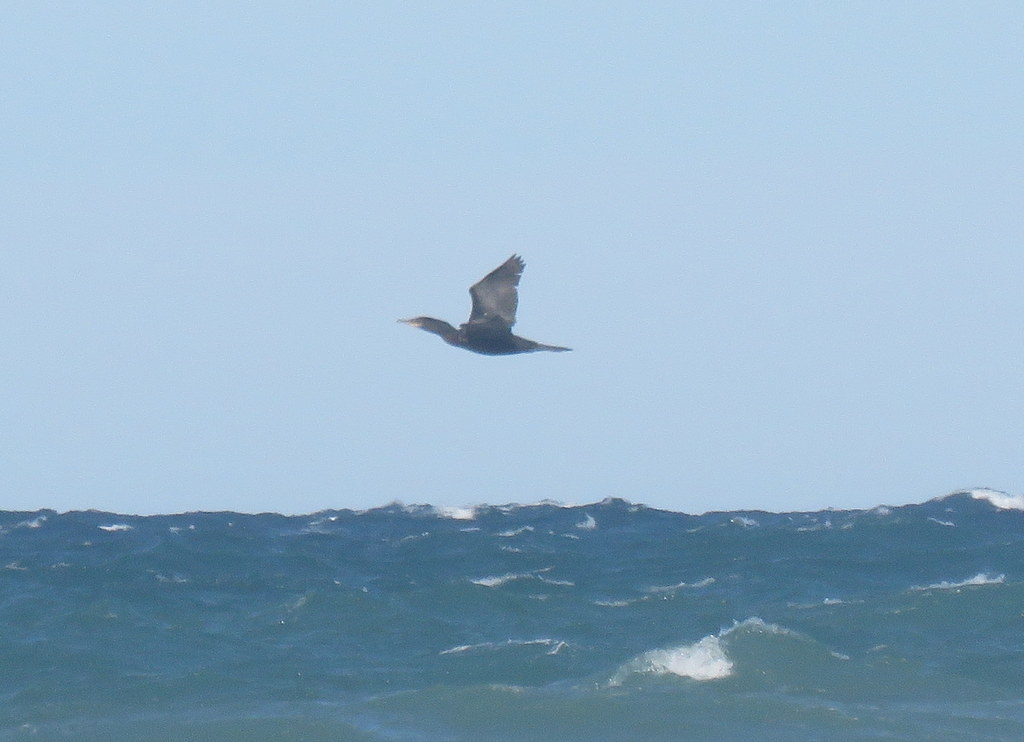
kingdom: Animalia
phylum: Chordata
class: Aves
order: Suliformes
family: Phalacrocoracidae
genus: Phalacrocorax
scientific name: Phalacrocorax brasilianus
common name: Neotropic cormorant
